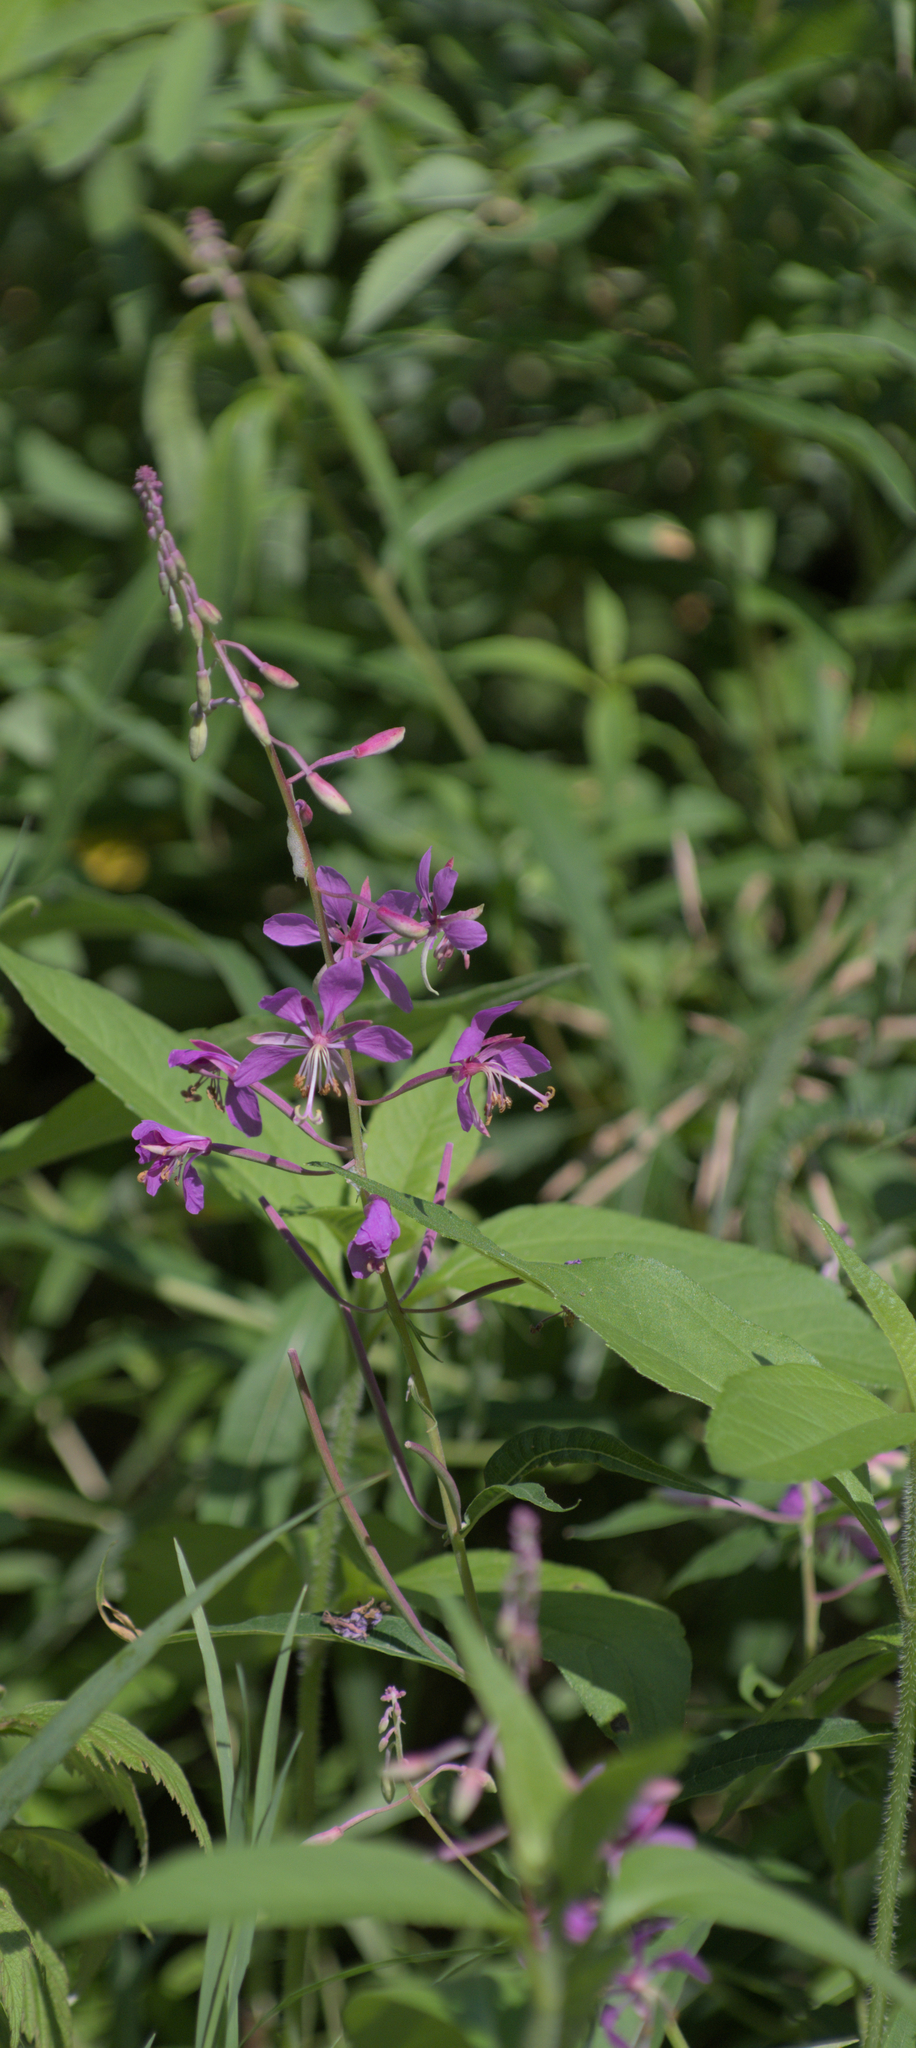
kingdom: Plantae
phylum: Tracheophyta
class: Magnoliopsida
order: Myrtales
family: Onagraceae
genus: Chamaenerion
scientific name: Chamaenerion angustifolium
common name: Fireweed
